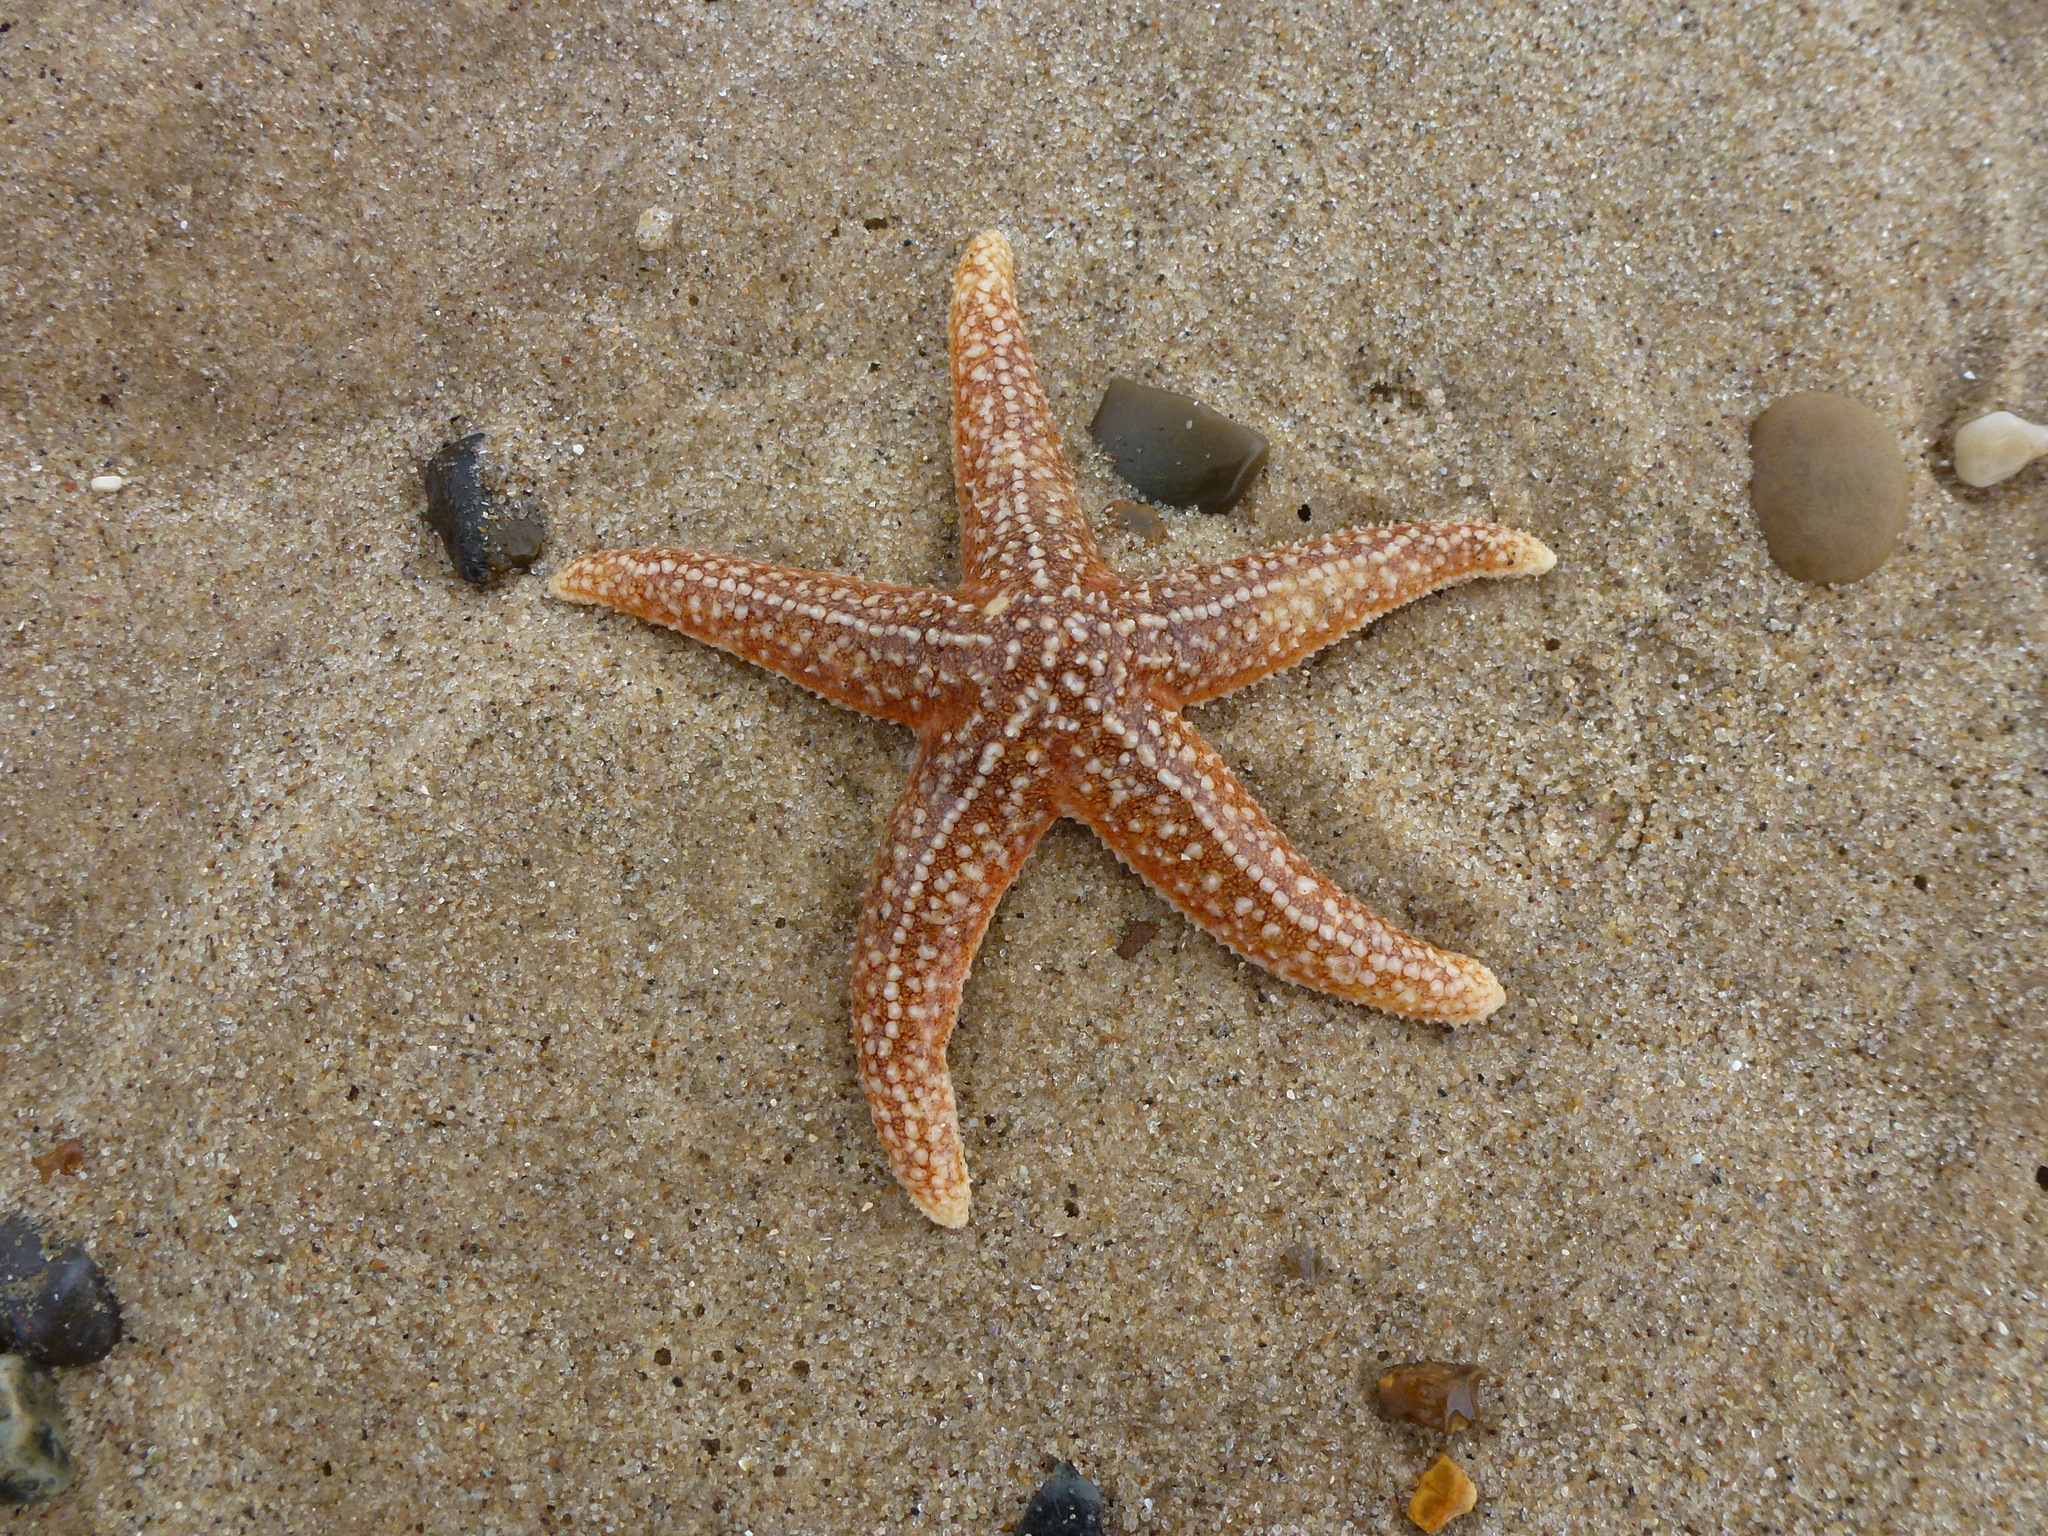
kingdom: Animalia
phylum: Echinodermata
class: Asteroidea
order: Forcipulatida
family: Asteriidae
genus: Asterias
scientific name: Asterias rubens
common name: Common starfish
